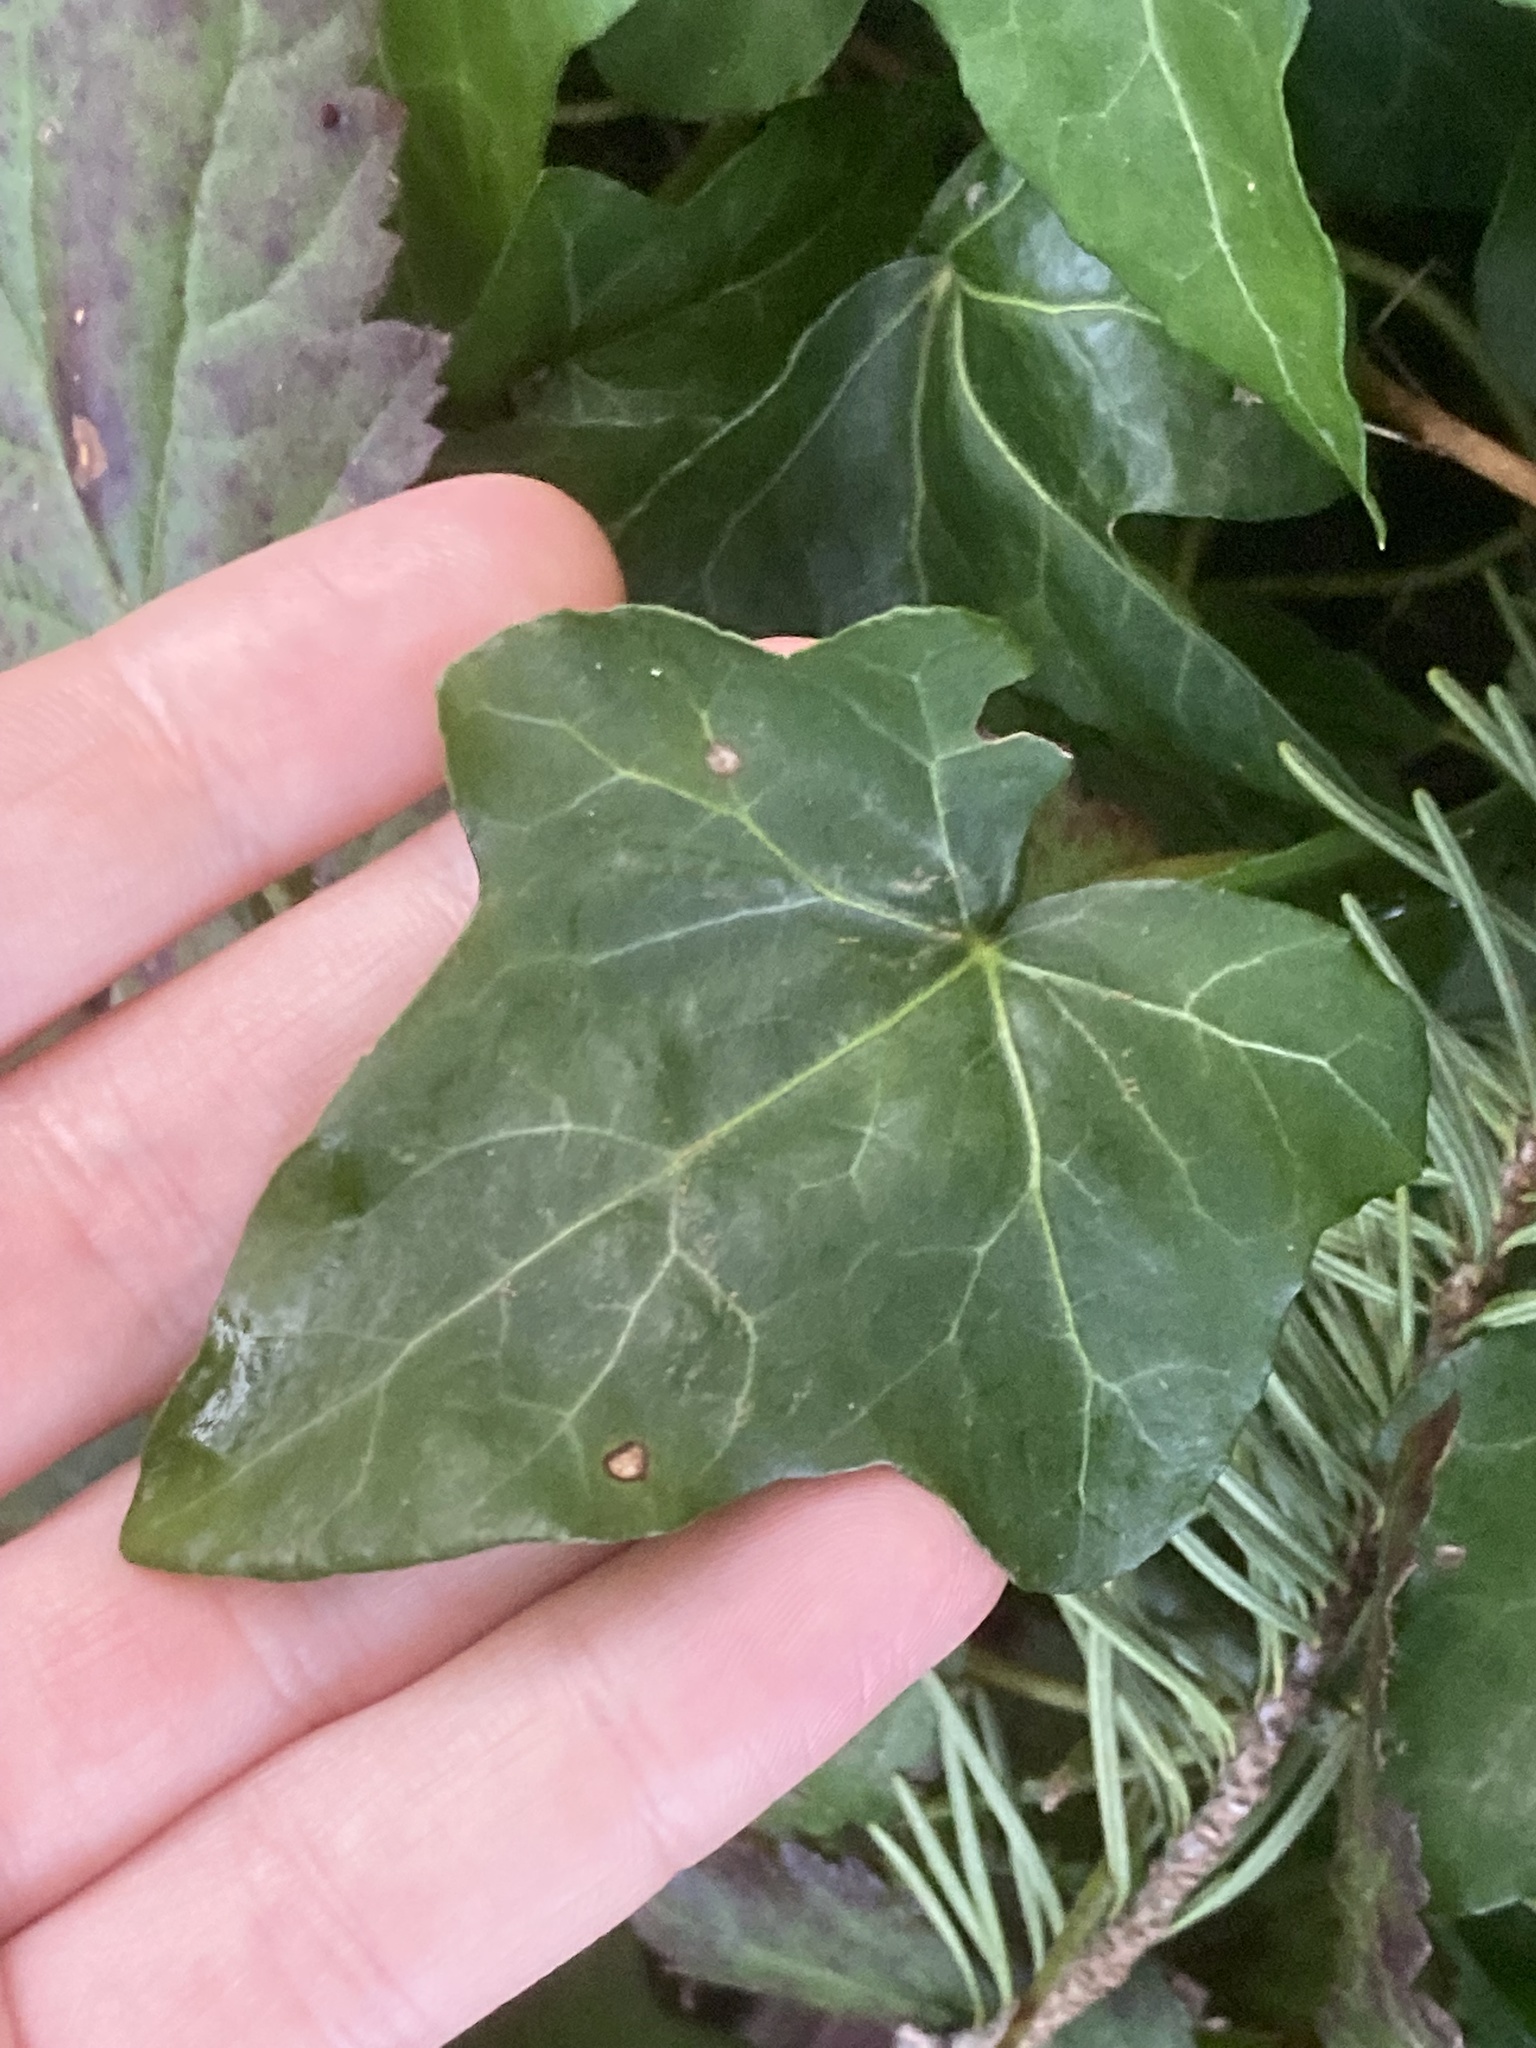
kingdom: Plantae
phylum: Tracheophyta
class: Magnoliopsida
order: Apiales
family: Araliaceae
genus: Hedera
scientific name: Hedera helix
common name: Ivy
